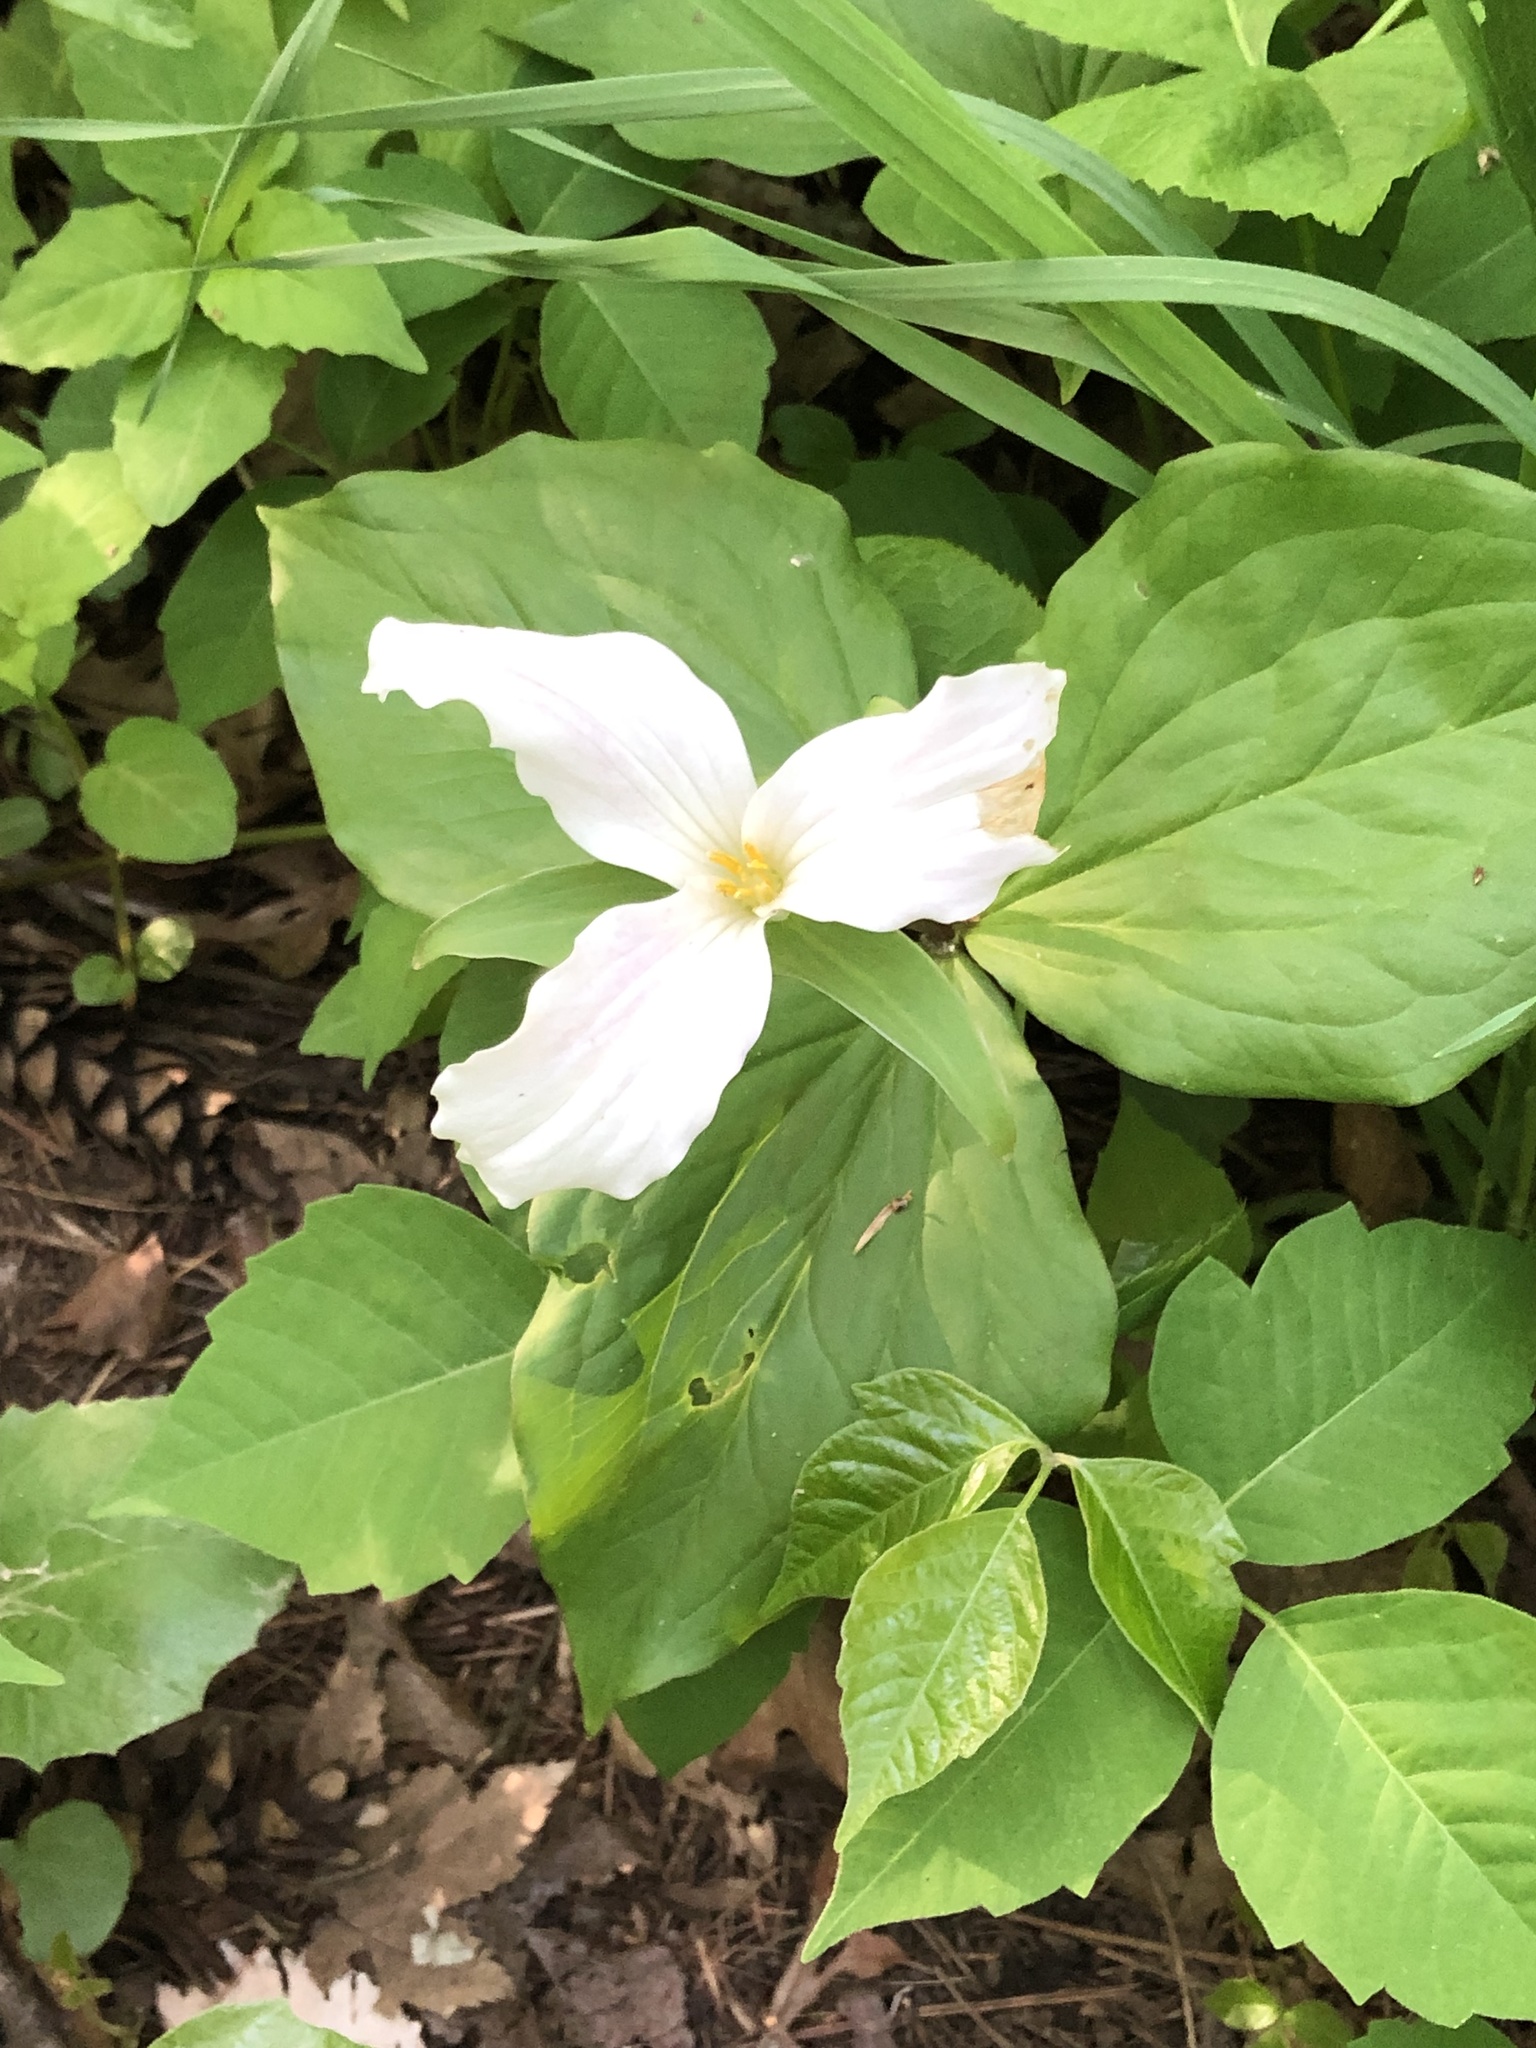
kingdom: Plantae
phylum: Tracheophyta
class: Liliopsida
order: Liliales
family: Melanthiaceae
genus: Trillium
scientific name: Trillium grandiflorum
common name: Great white trillium
